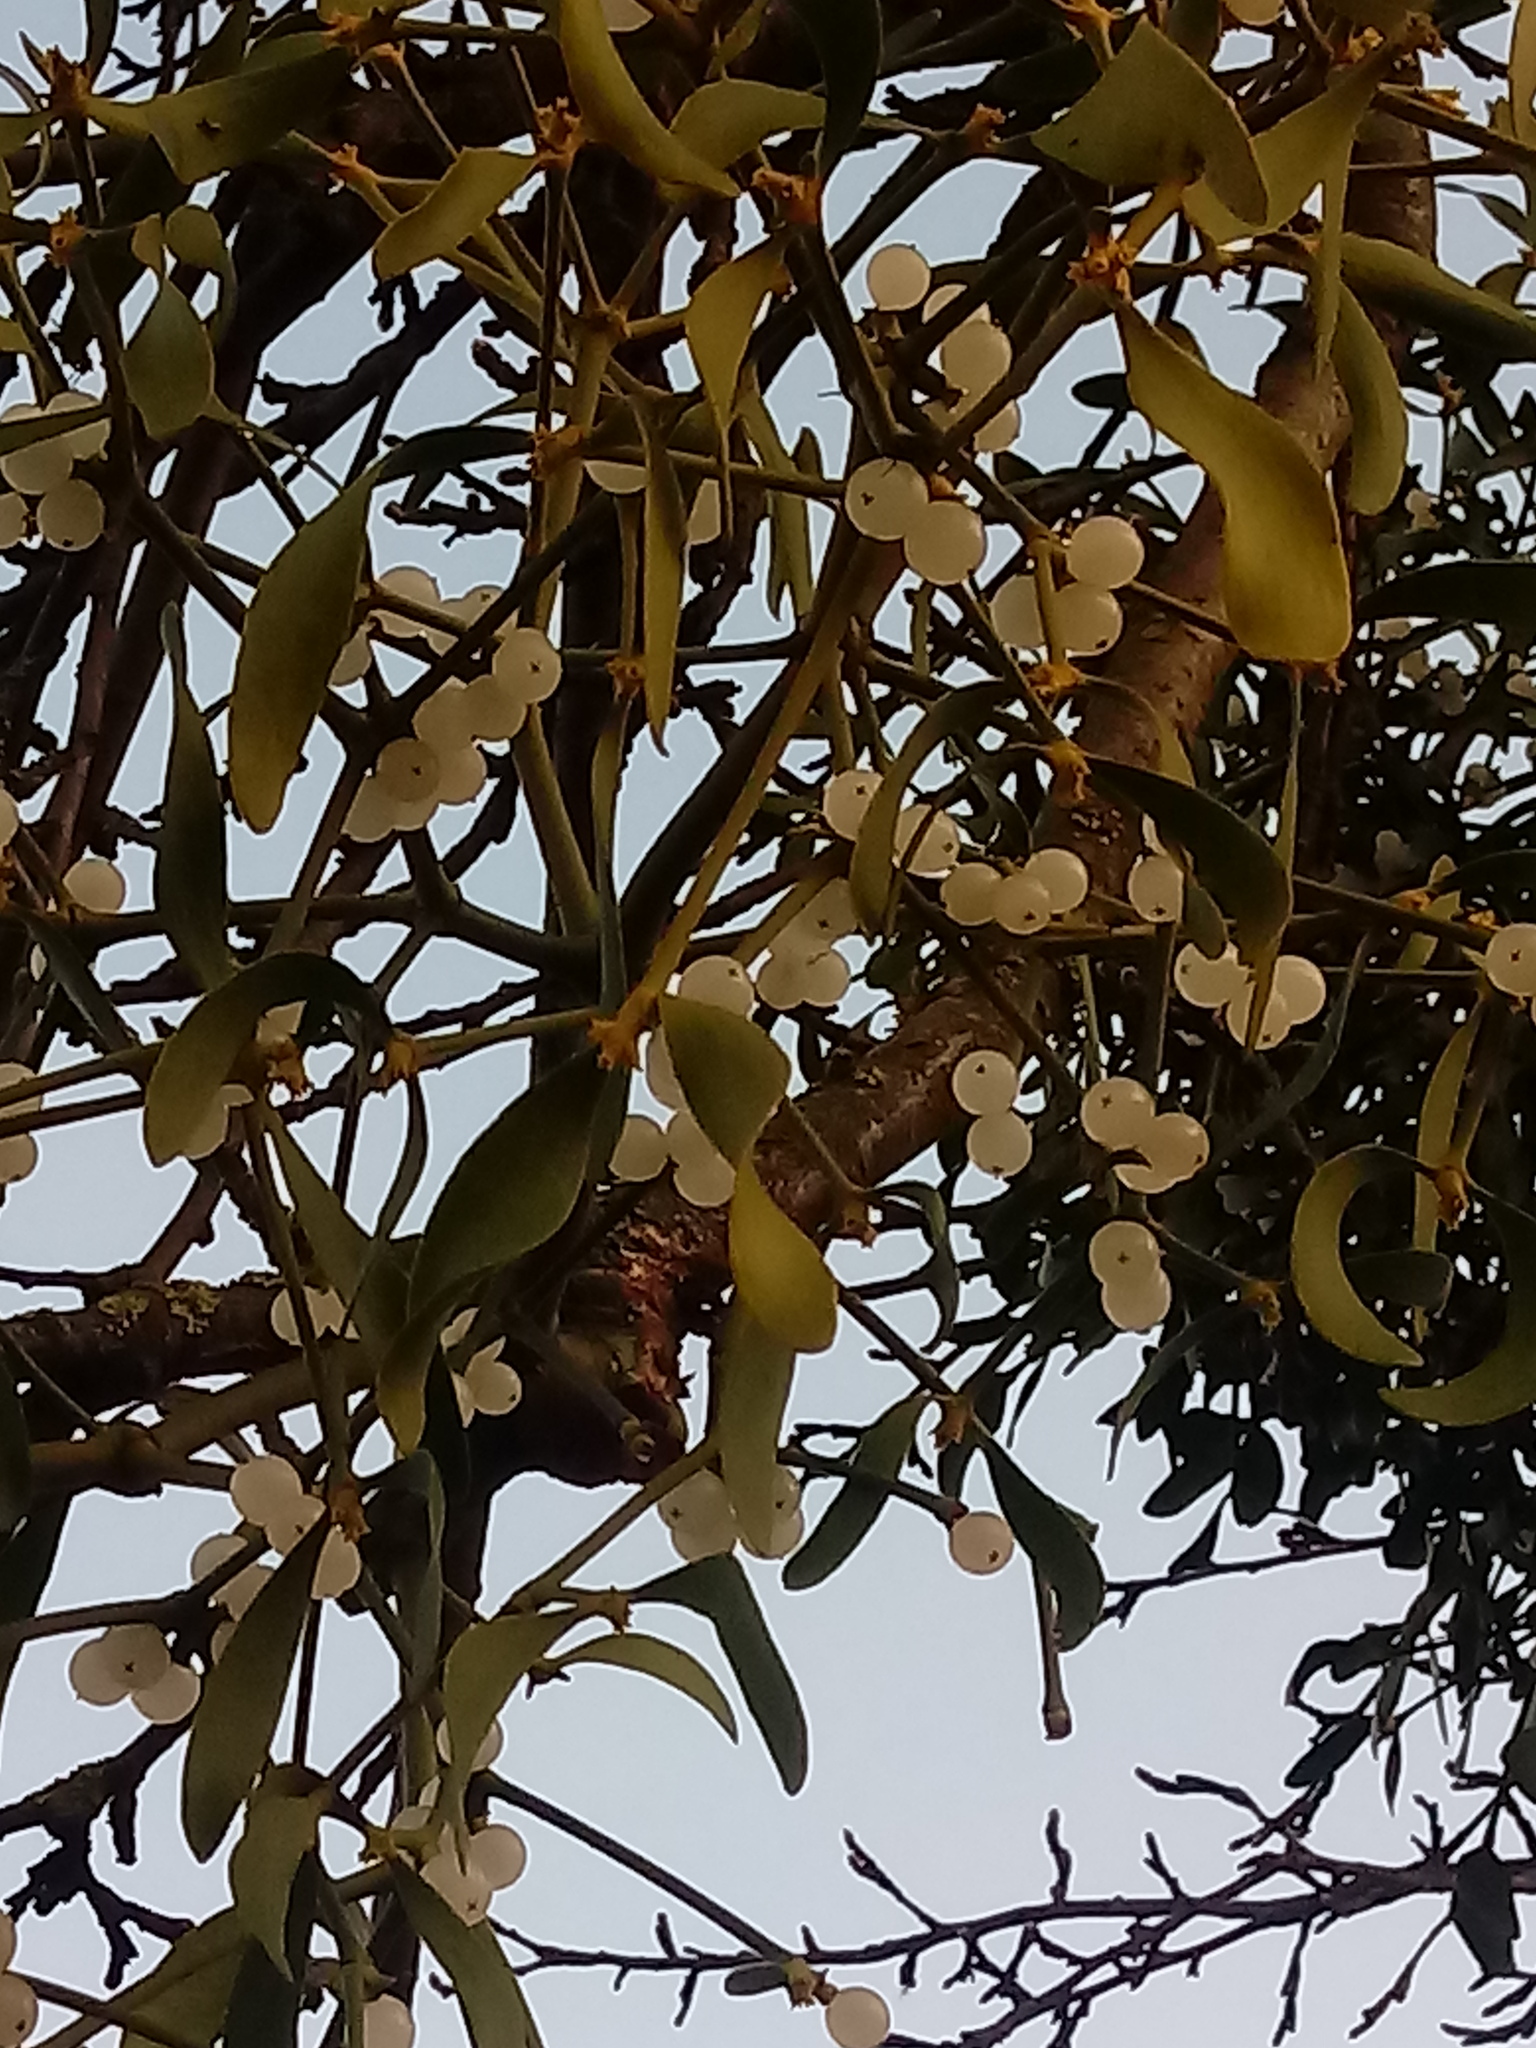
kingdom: Plantae
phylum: Tracheophyta
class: Magnoliopsida
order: Santalales
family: Viscaceae
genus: Viscum
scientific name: Viscum album
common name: Mistletoe
